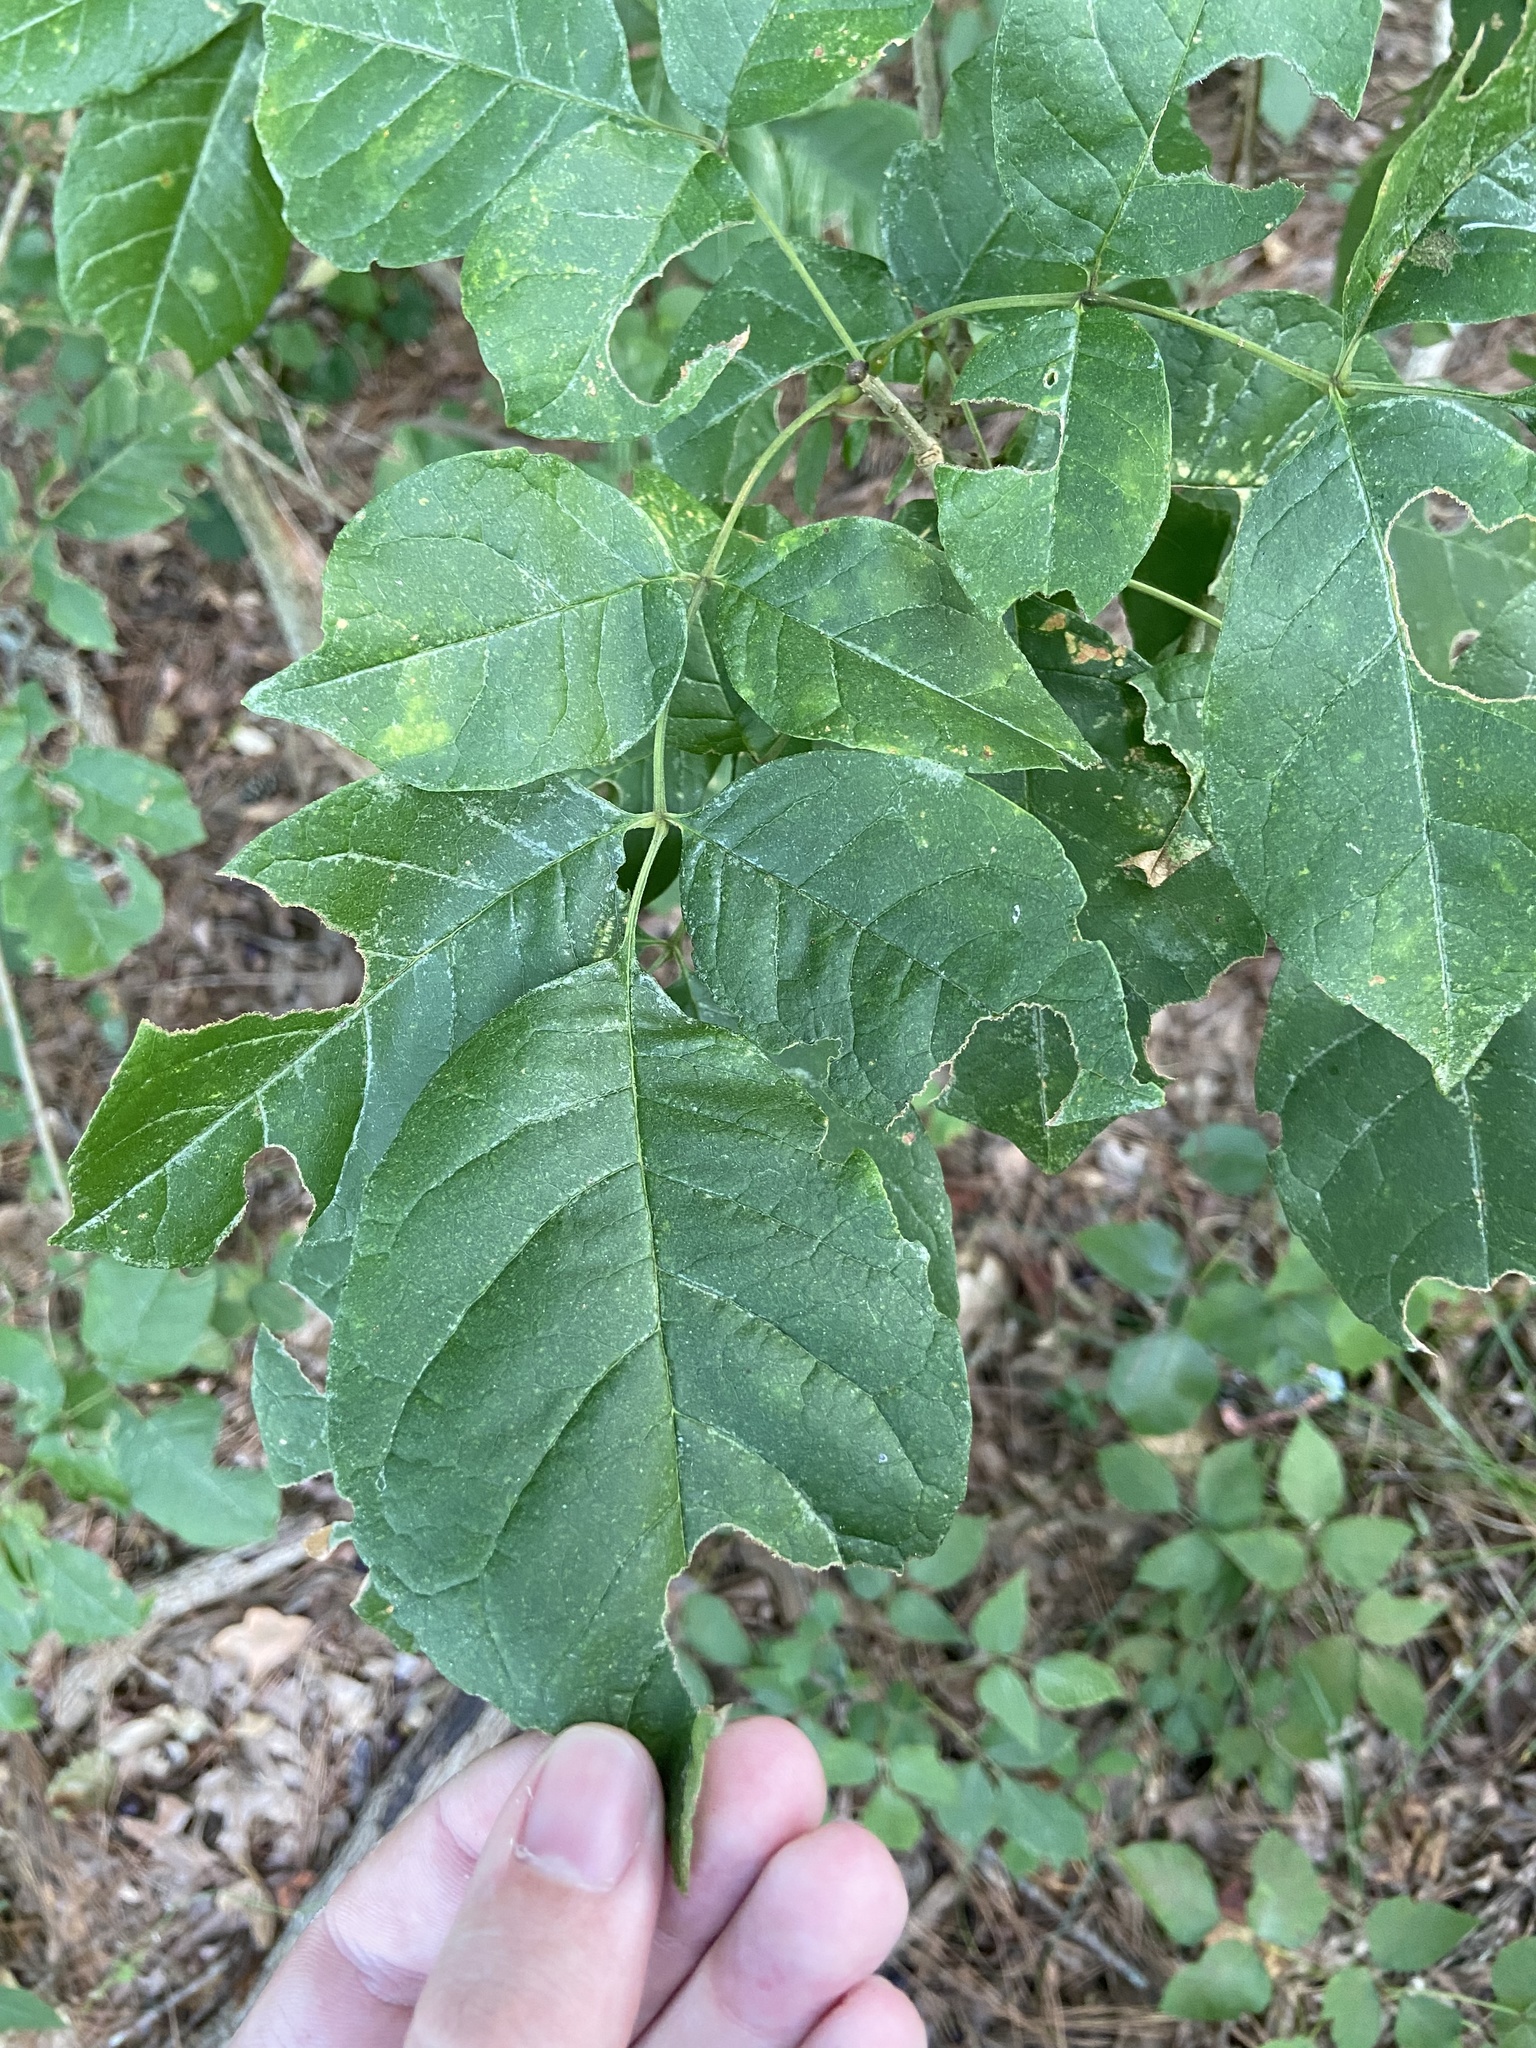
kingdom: Plantae
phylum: Tracheophyta
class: Magnoliopsida
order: Lamiales
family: Oleaceae
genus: Fraxinus
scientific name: Fraxinus americana
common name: White ash
